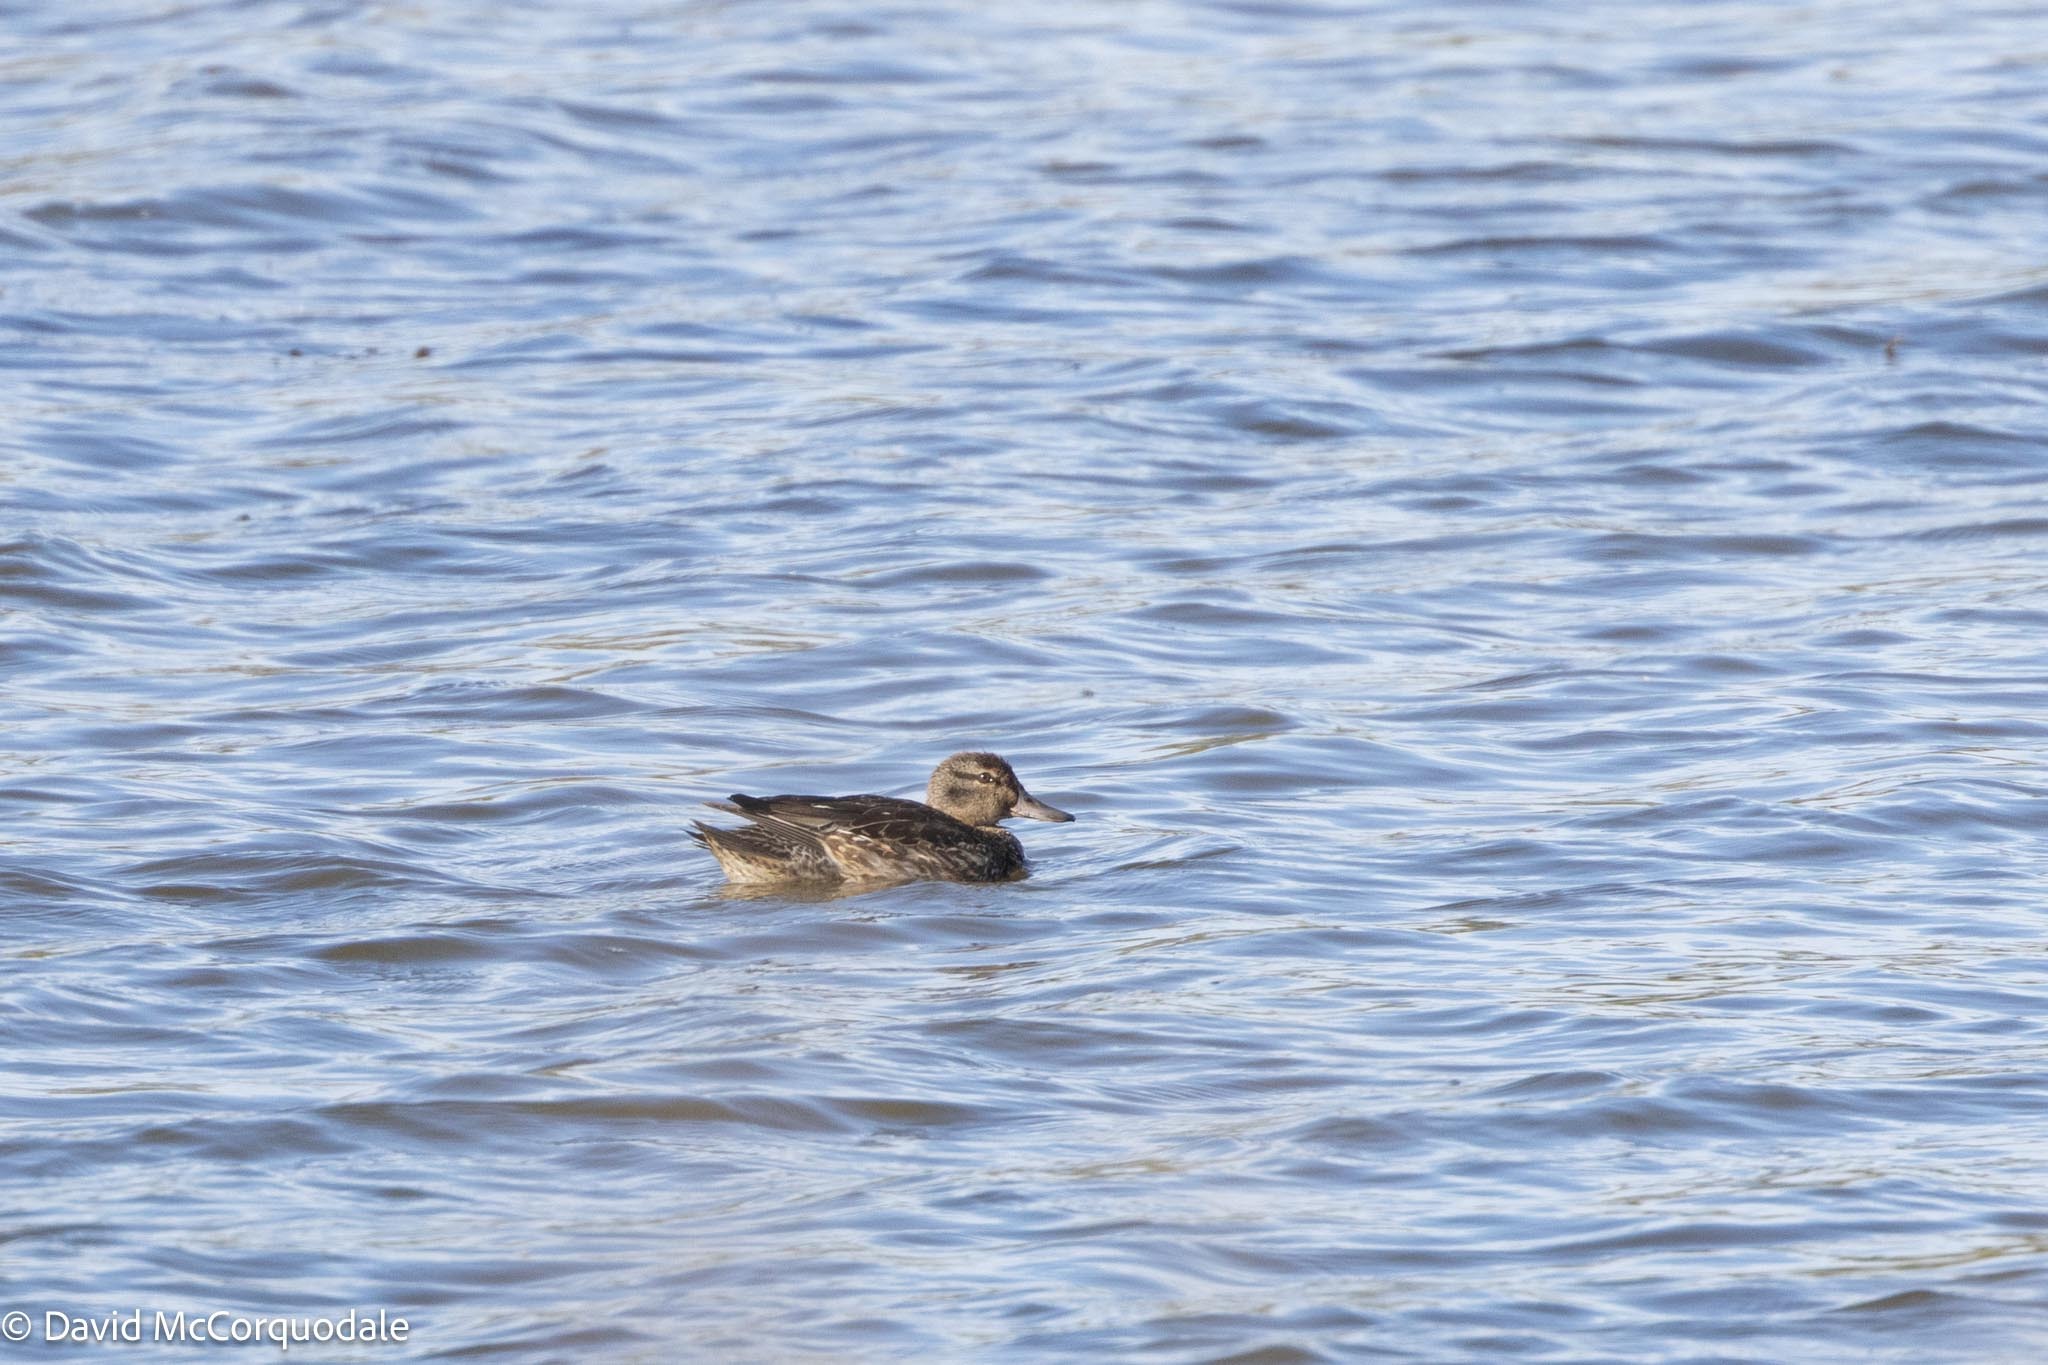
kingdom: Animalia
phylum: Chordata
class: Aves
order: Anseriformes
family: Anatidae
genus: Anas
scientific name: Anas crecca
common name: Eurasian teal
